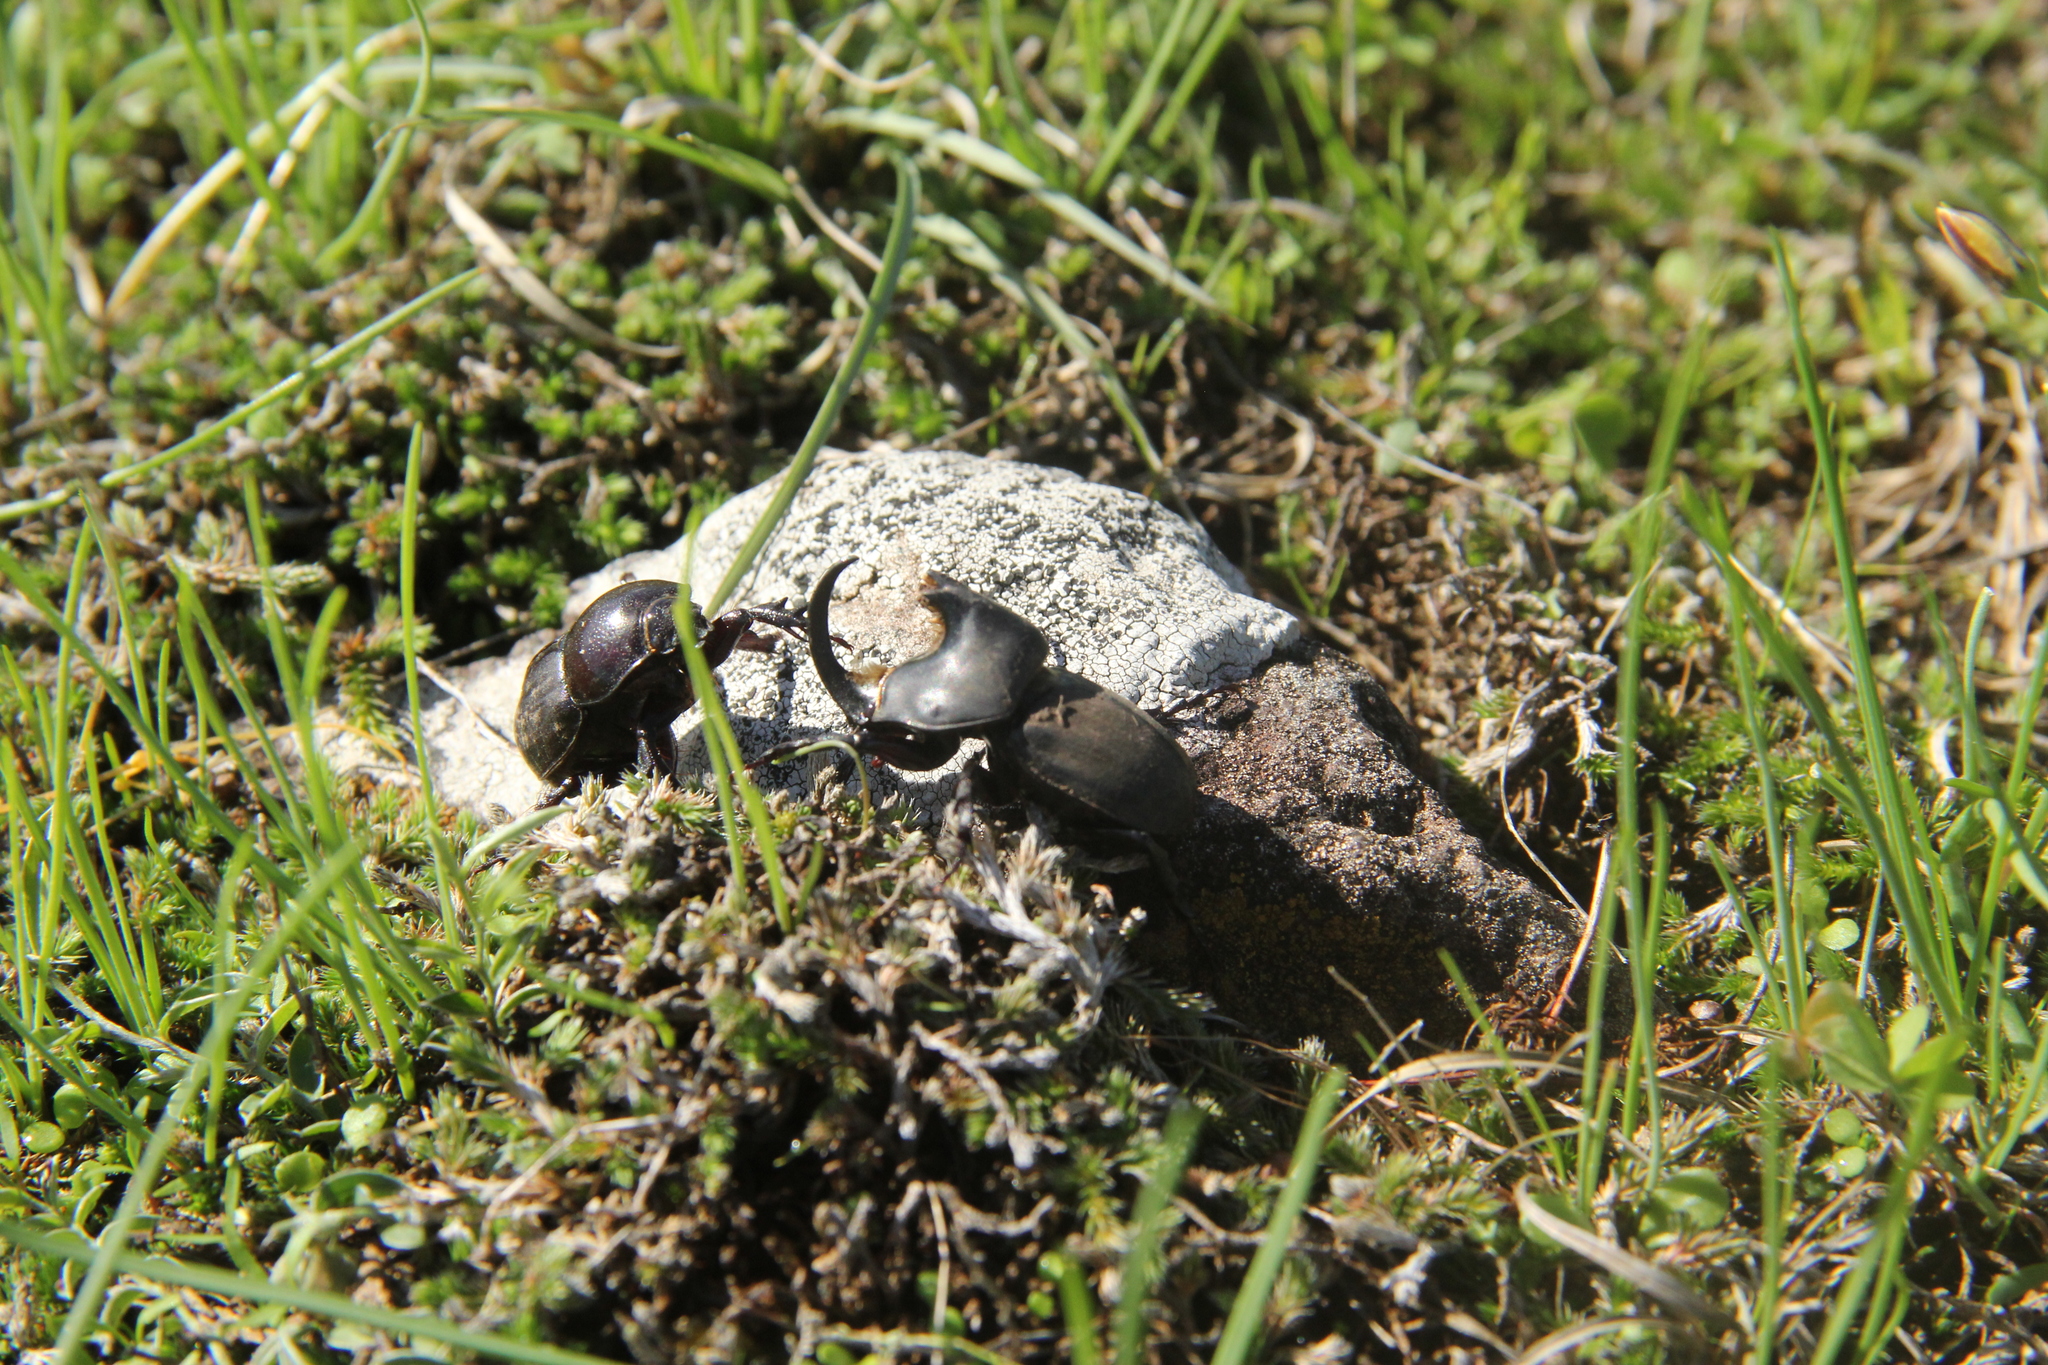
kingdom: Animalia
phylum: Arthropoda
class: Insecta
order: Coleoptera
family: Scarabaeidae
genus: Diloboderus
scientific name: Diloboderus abderus
